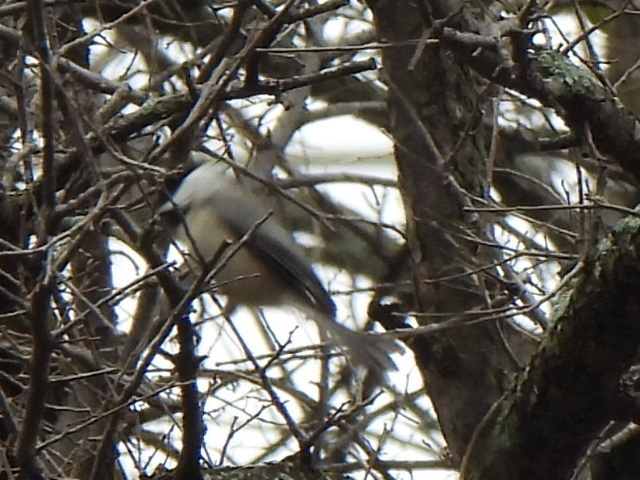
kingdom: Animalia
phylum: Chordata
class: Aves
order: Passeriformes
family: Paridae
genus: Poecile
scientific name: Poecile carolinensis
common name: Carolina chickadee
